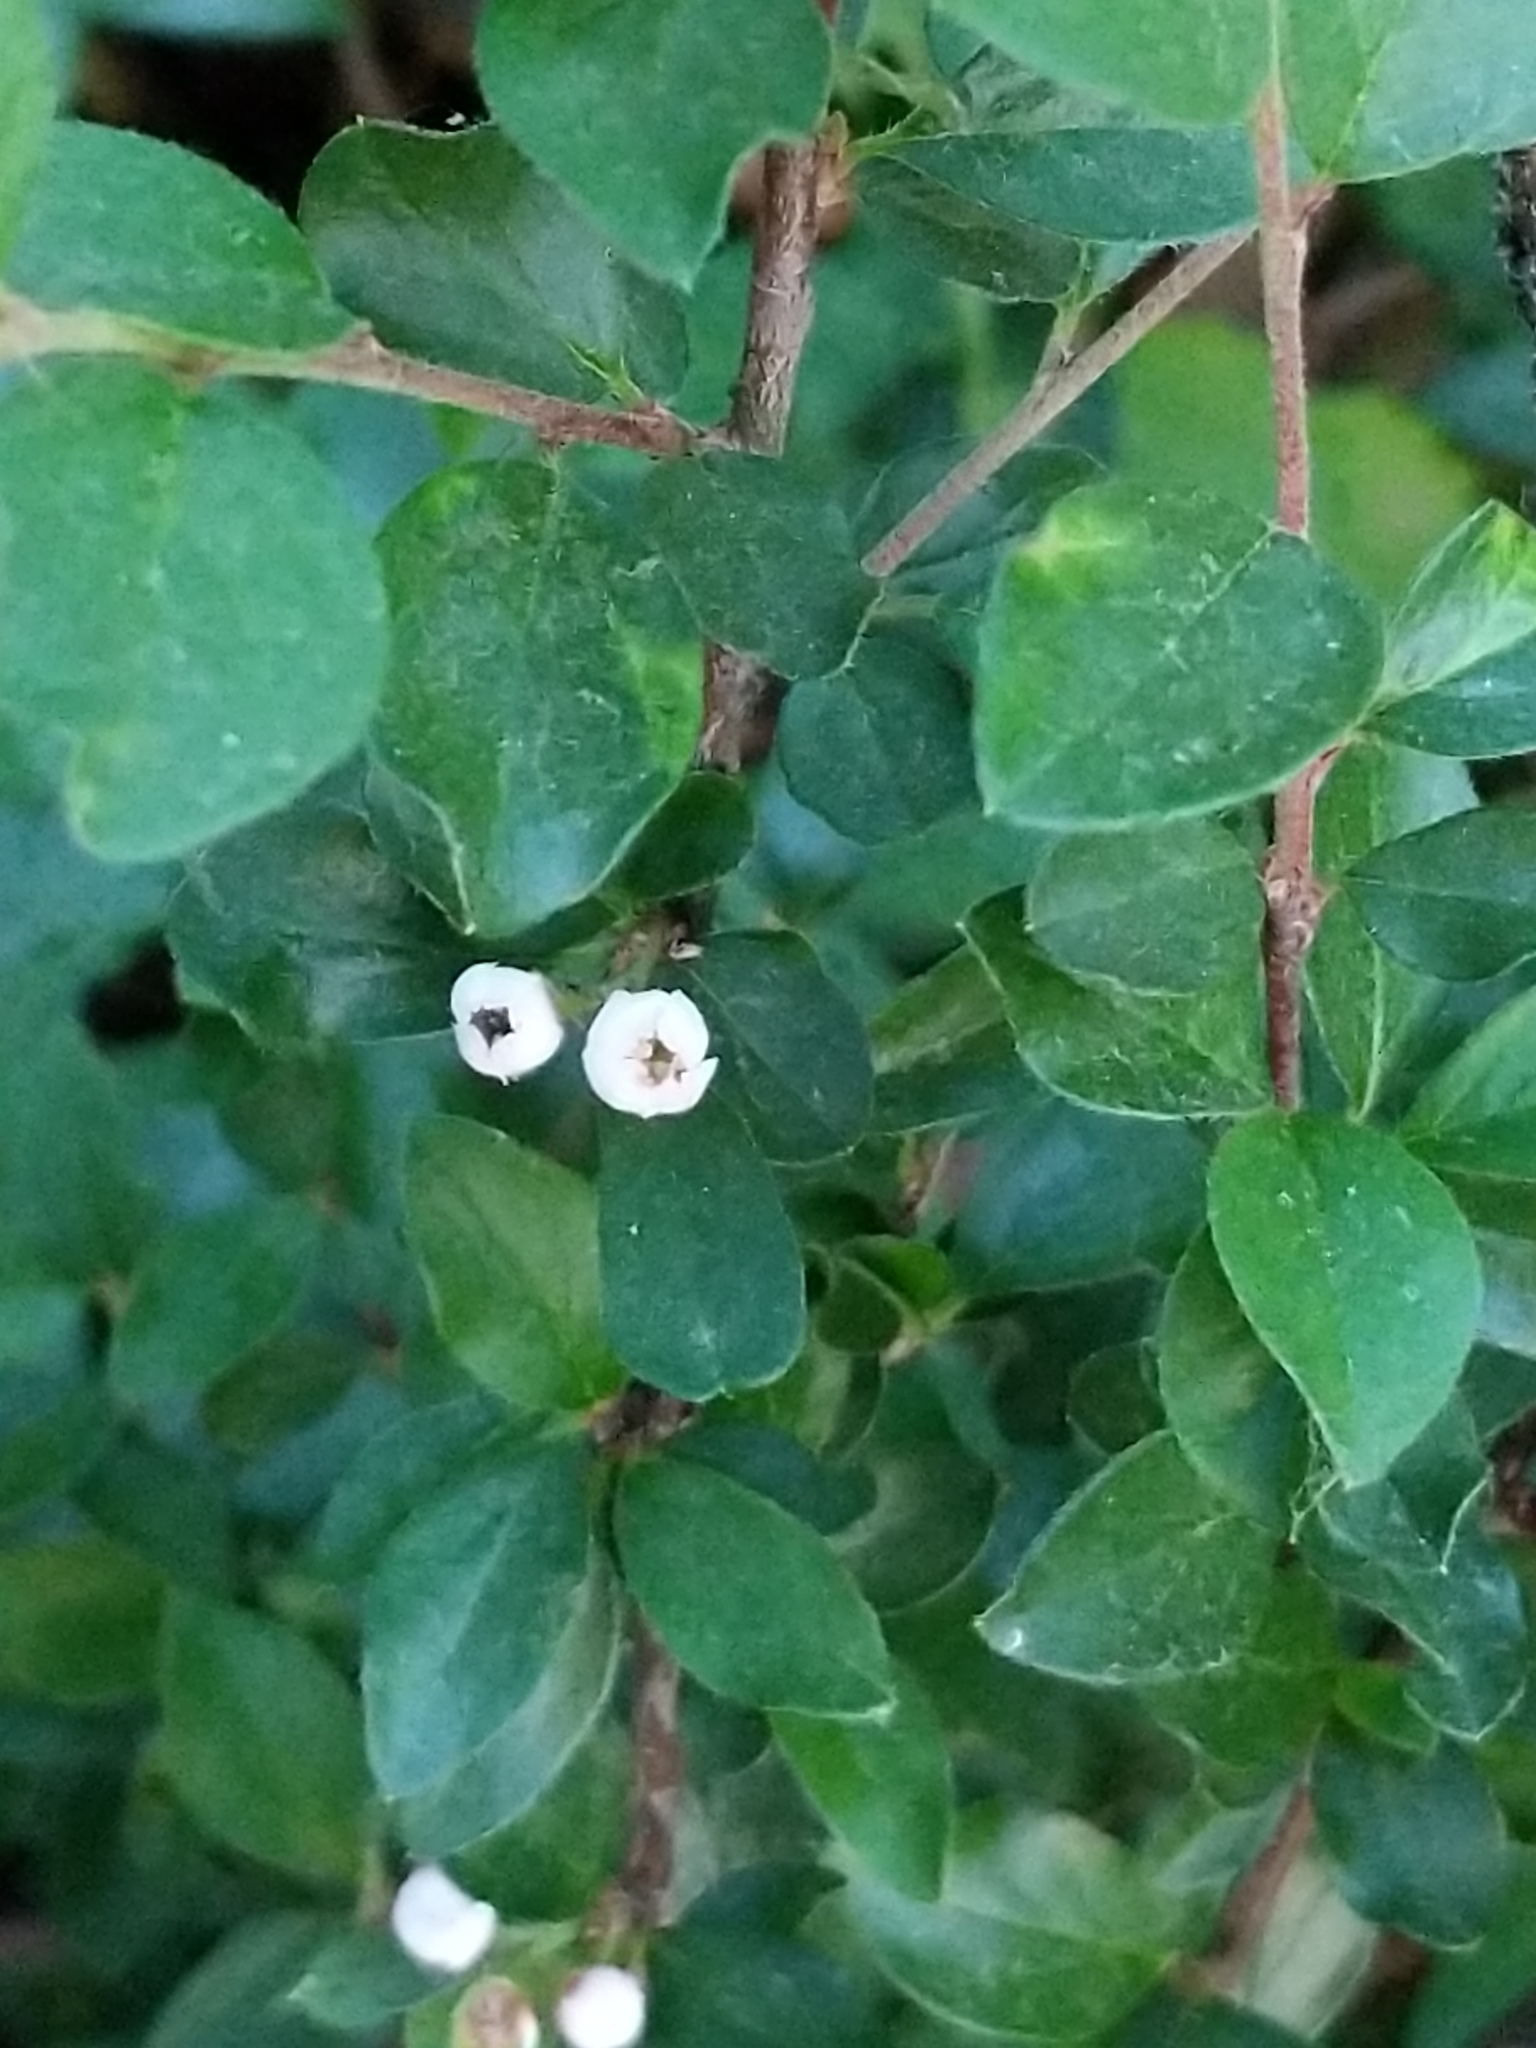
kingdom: Plantae
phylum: Tracheophyta
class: Magnoliopsida
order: Rosales
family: Rosaceae
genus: Cotoneaster
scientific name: Cotoneaster divaricatus
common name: Spreading cotoneaster
